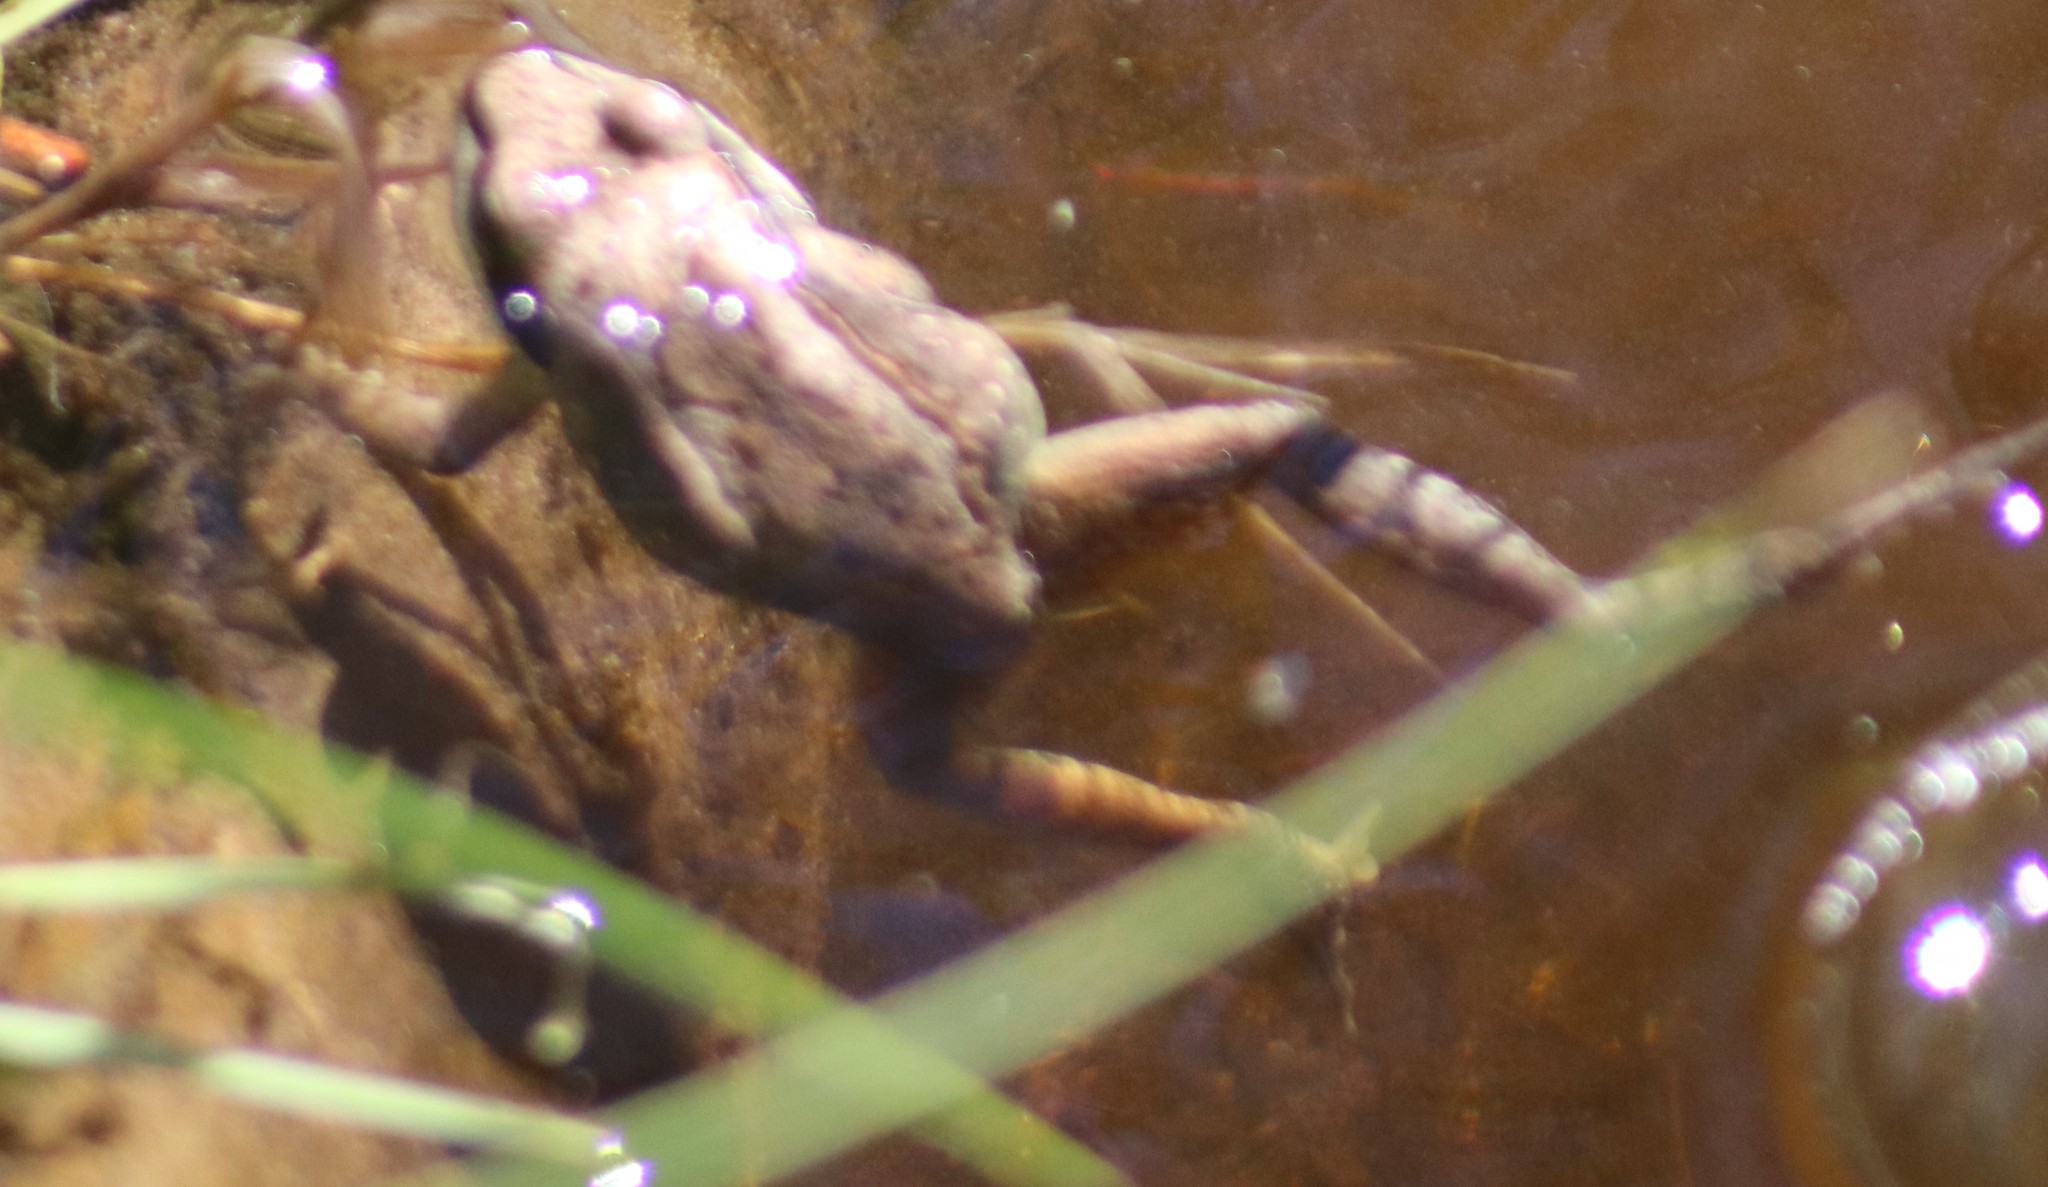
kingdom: Animalia
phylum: Chordata
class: Amphibia
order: Anura
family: Ranidae
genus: Lithobates
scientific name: Lithobates sylvaticus
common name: Wood frog
